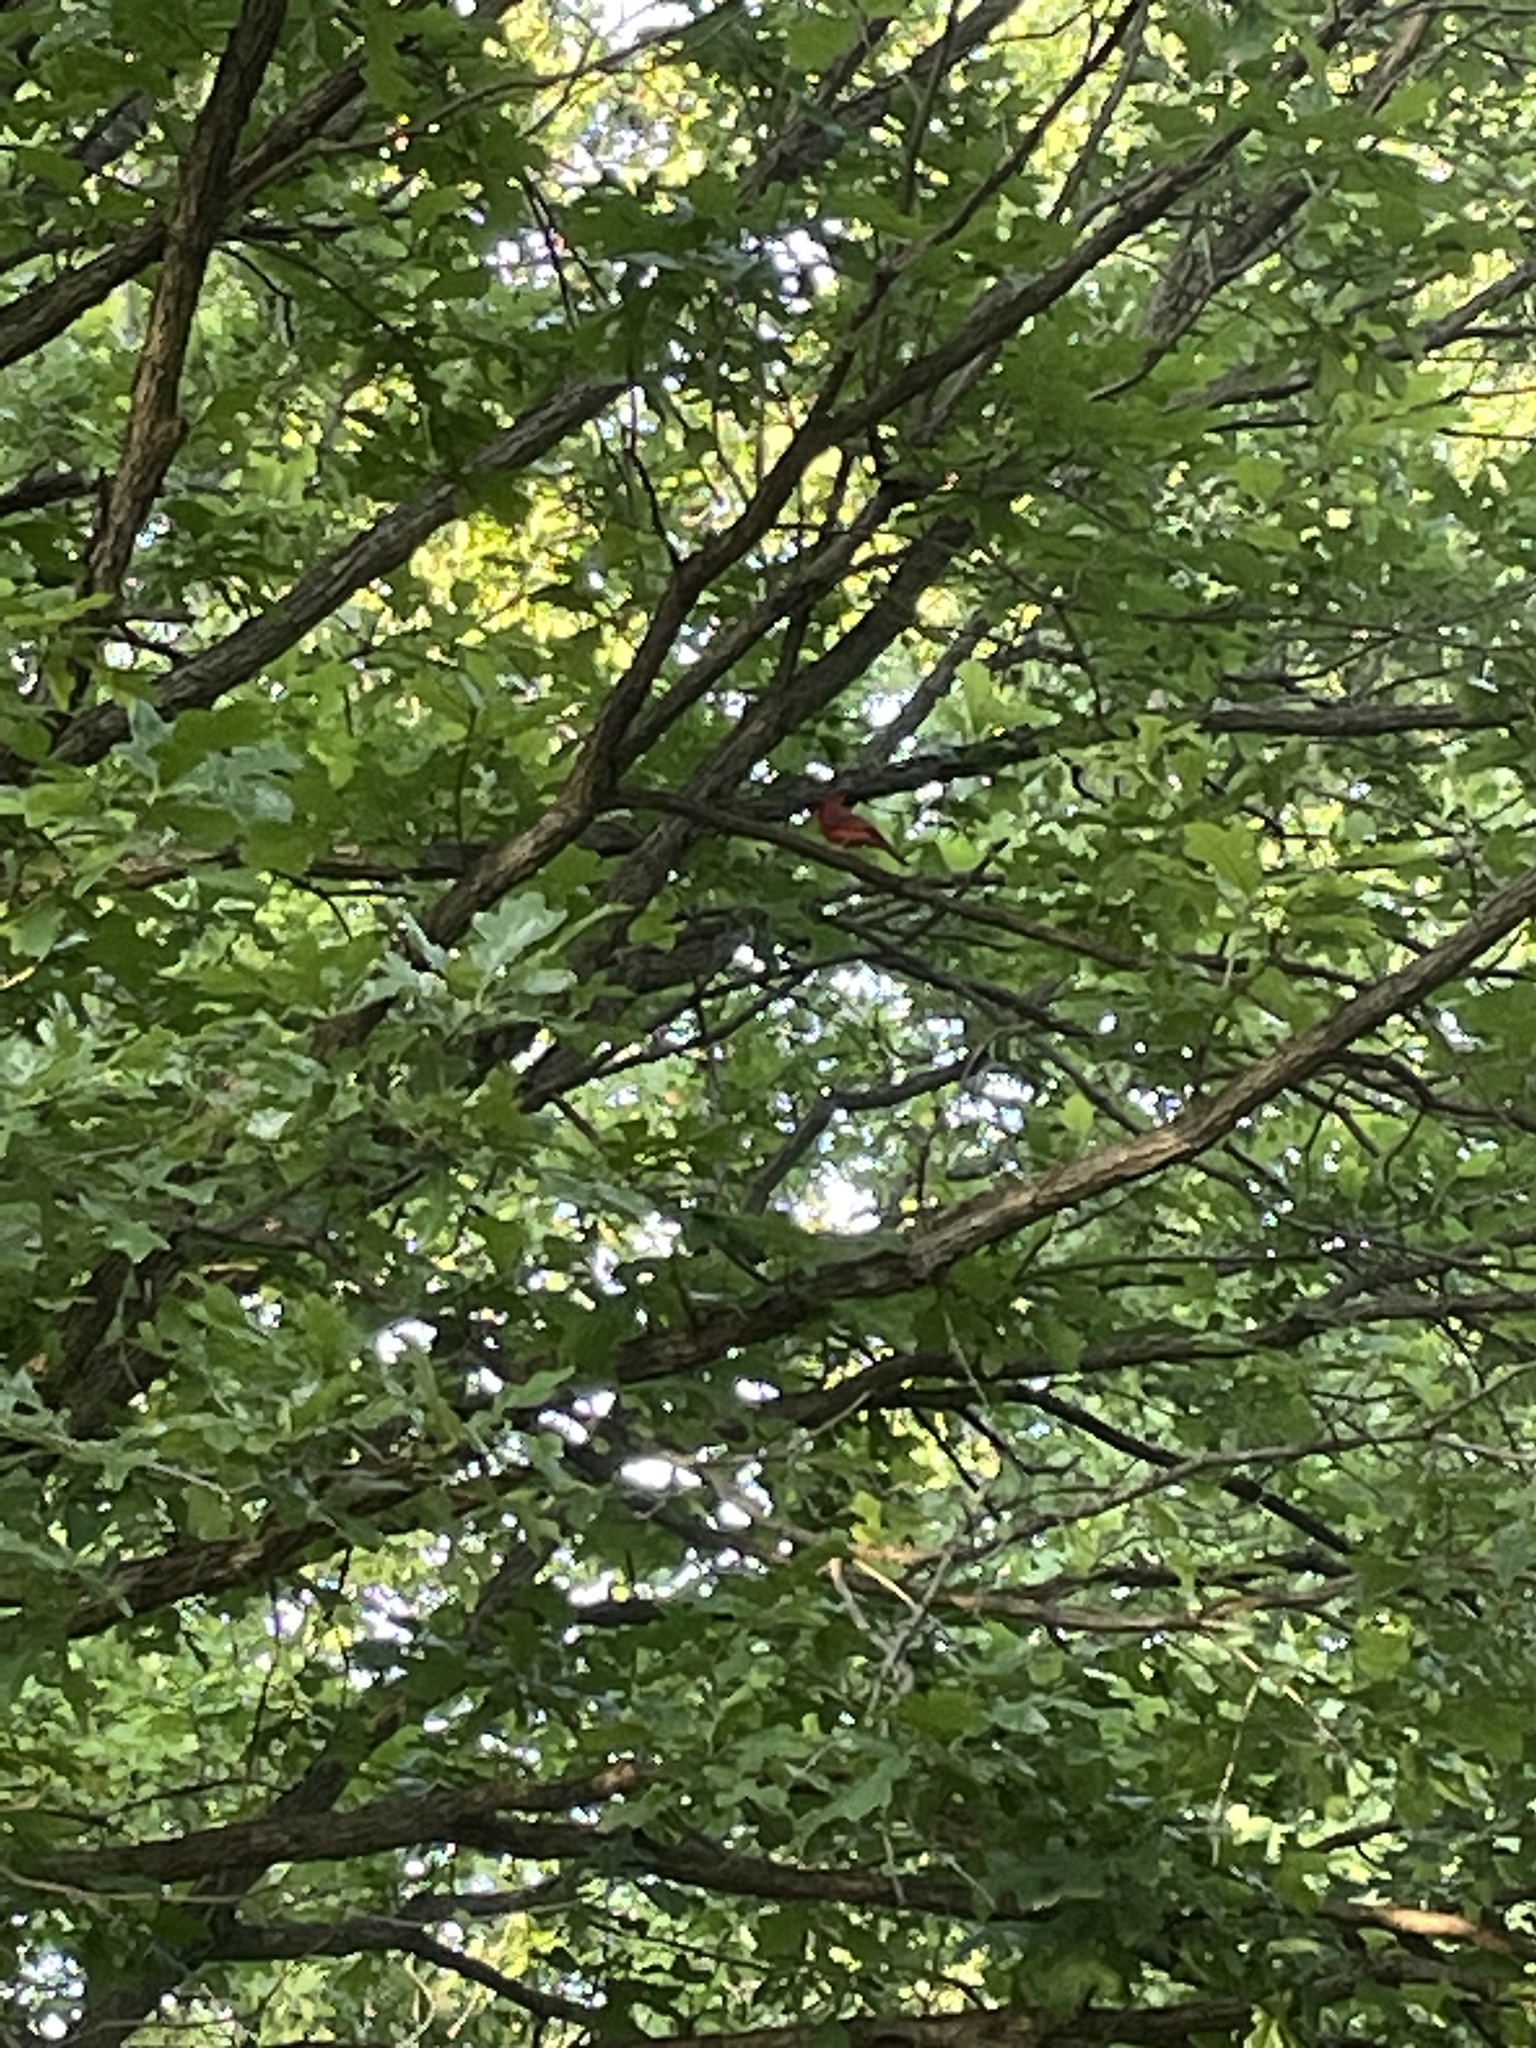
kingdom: Animalia
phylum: Chordata
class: Aves
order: Passeriformes
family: Cardinalidae
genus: Cardinalis
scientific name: Cardinalis cardinalis
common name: Northern cardinal
